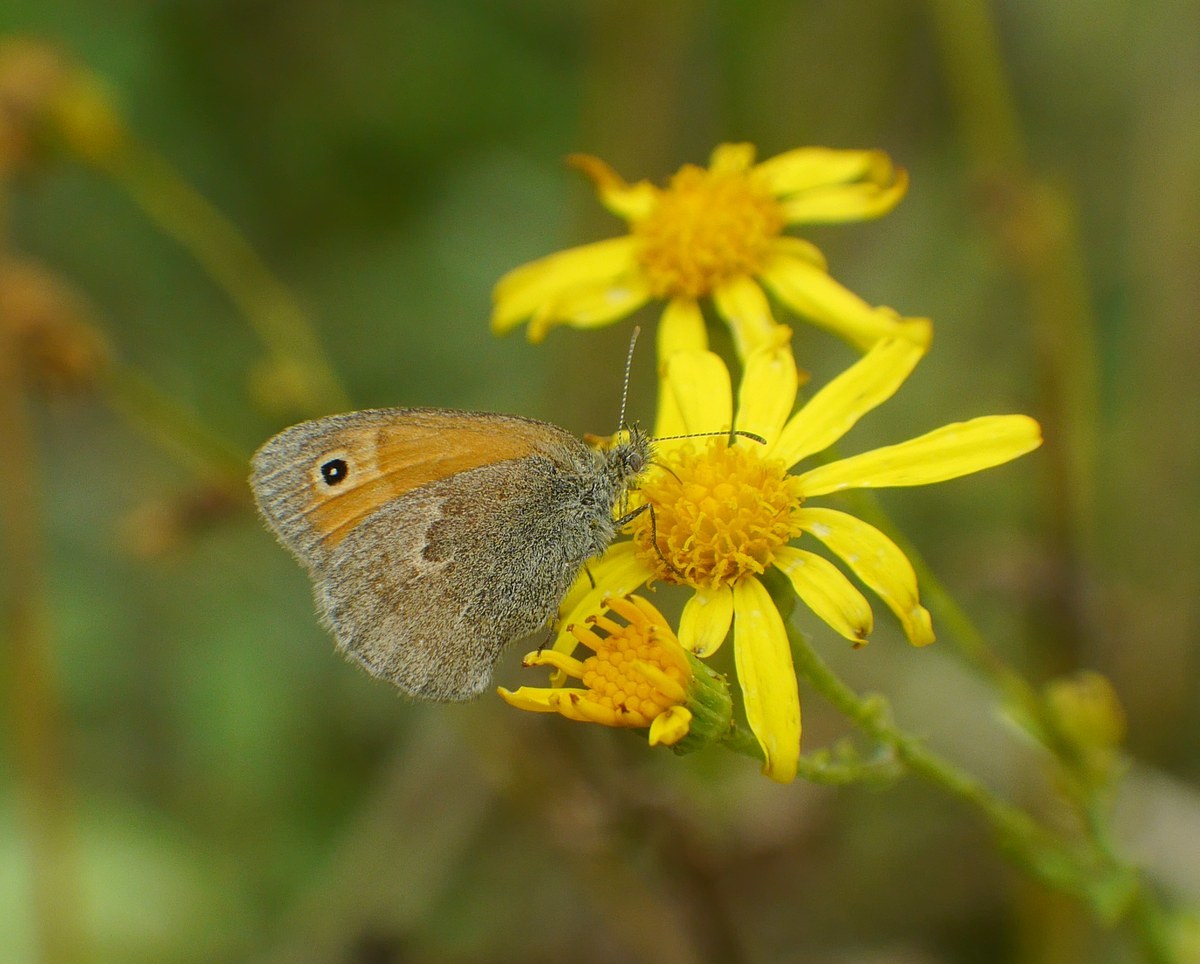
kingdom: Animalia
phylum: Arthropoda
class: Insecta
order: Lepidoptera
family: Nymphalidae
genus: Coenonympha
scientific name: Coenonympha pamphilus
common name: Small heath
